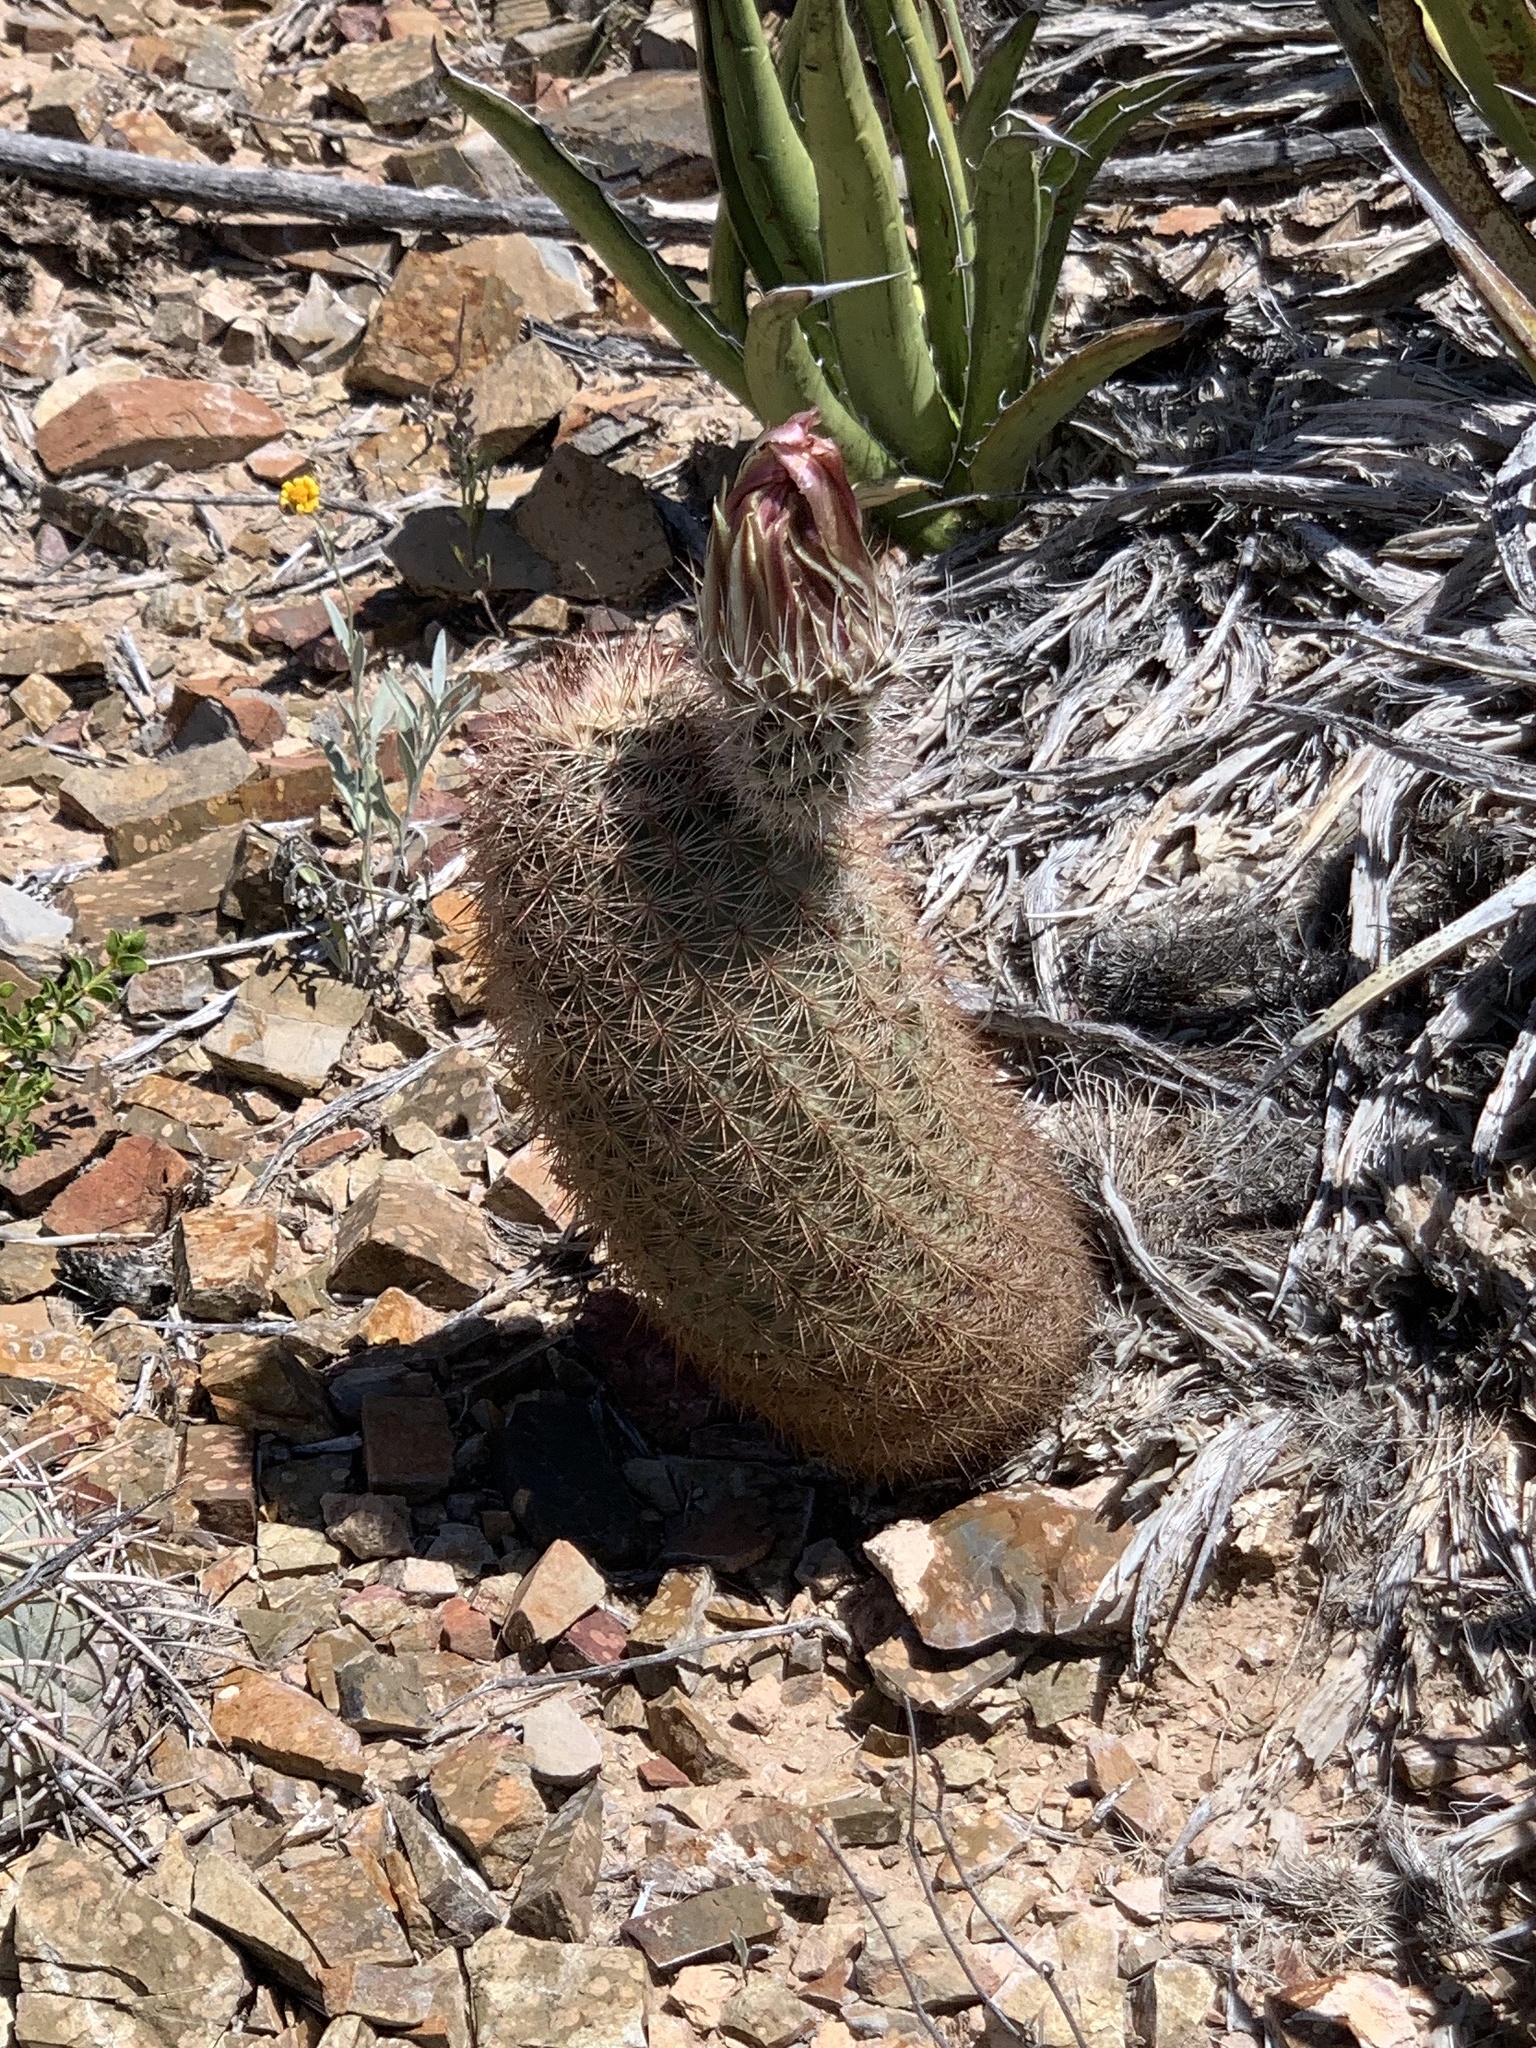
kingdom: Plantae
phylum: Tracheophyta
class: Magnoliopsida
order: Caryophyllales
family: Cactaceae
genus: Echinocereus
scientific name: Echinocereus dasyacanthus
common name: Spiny hedgehog cactus
